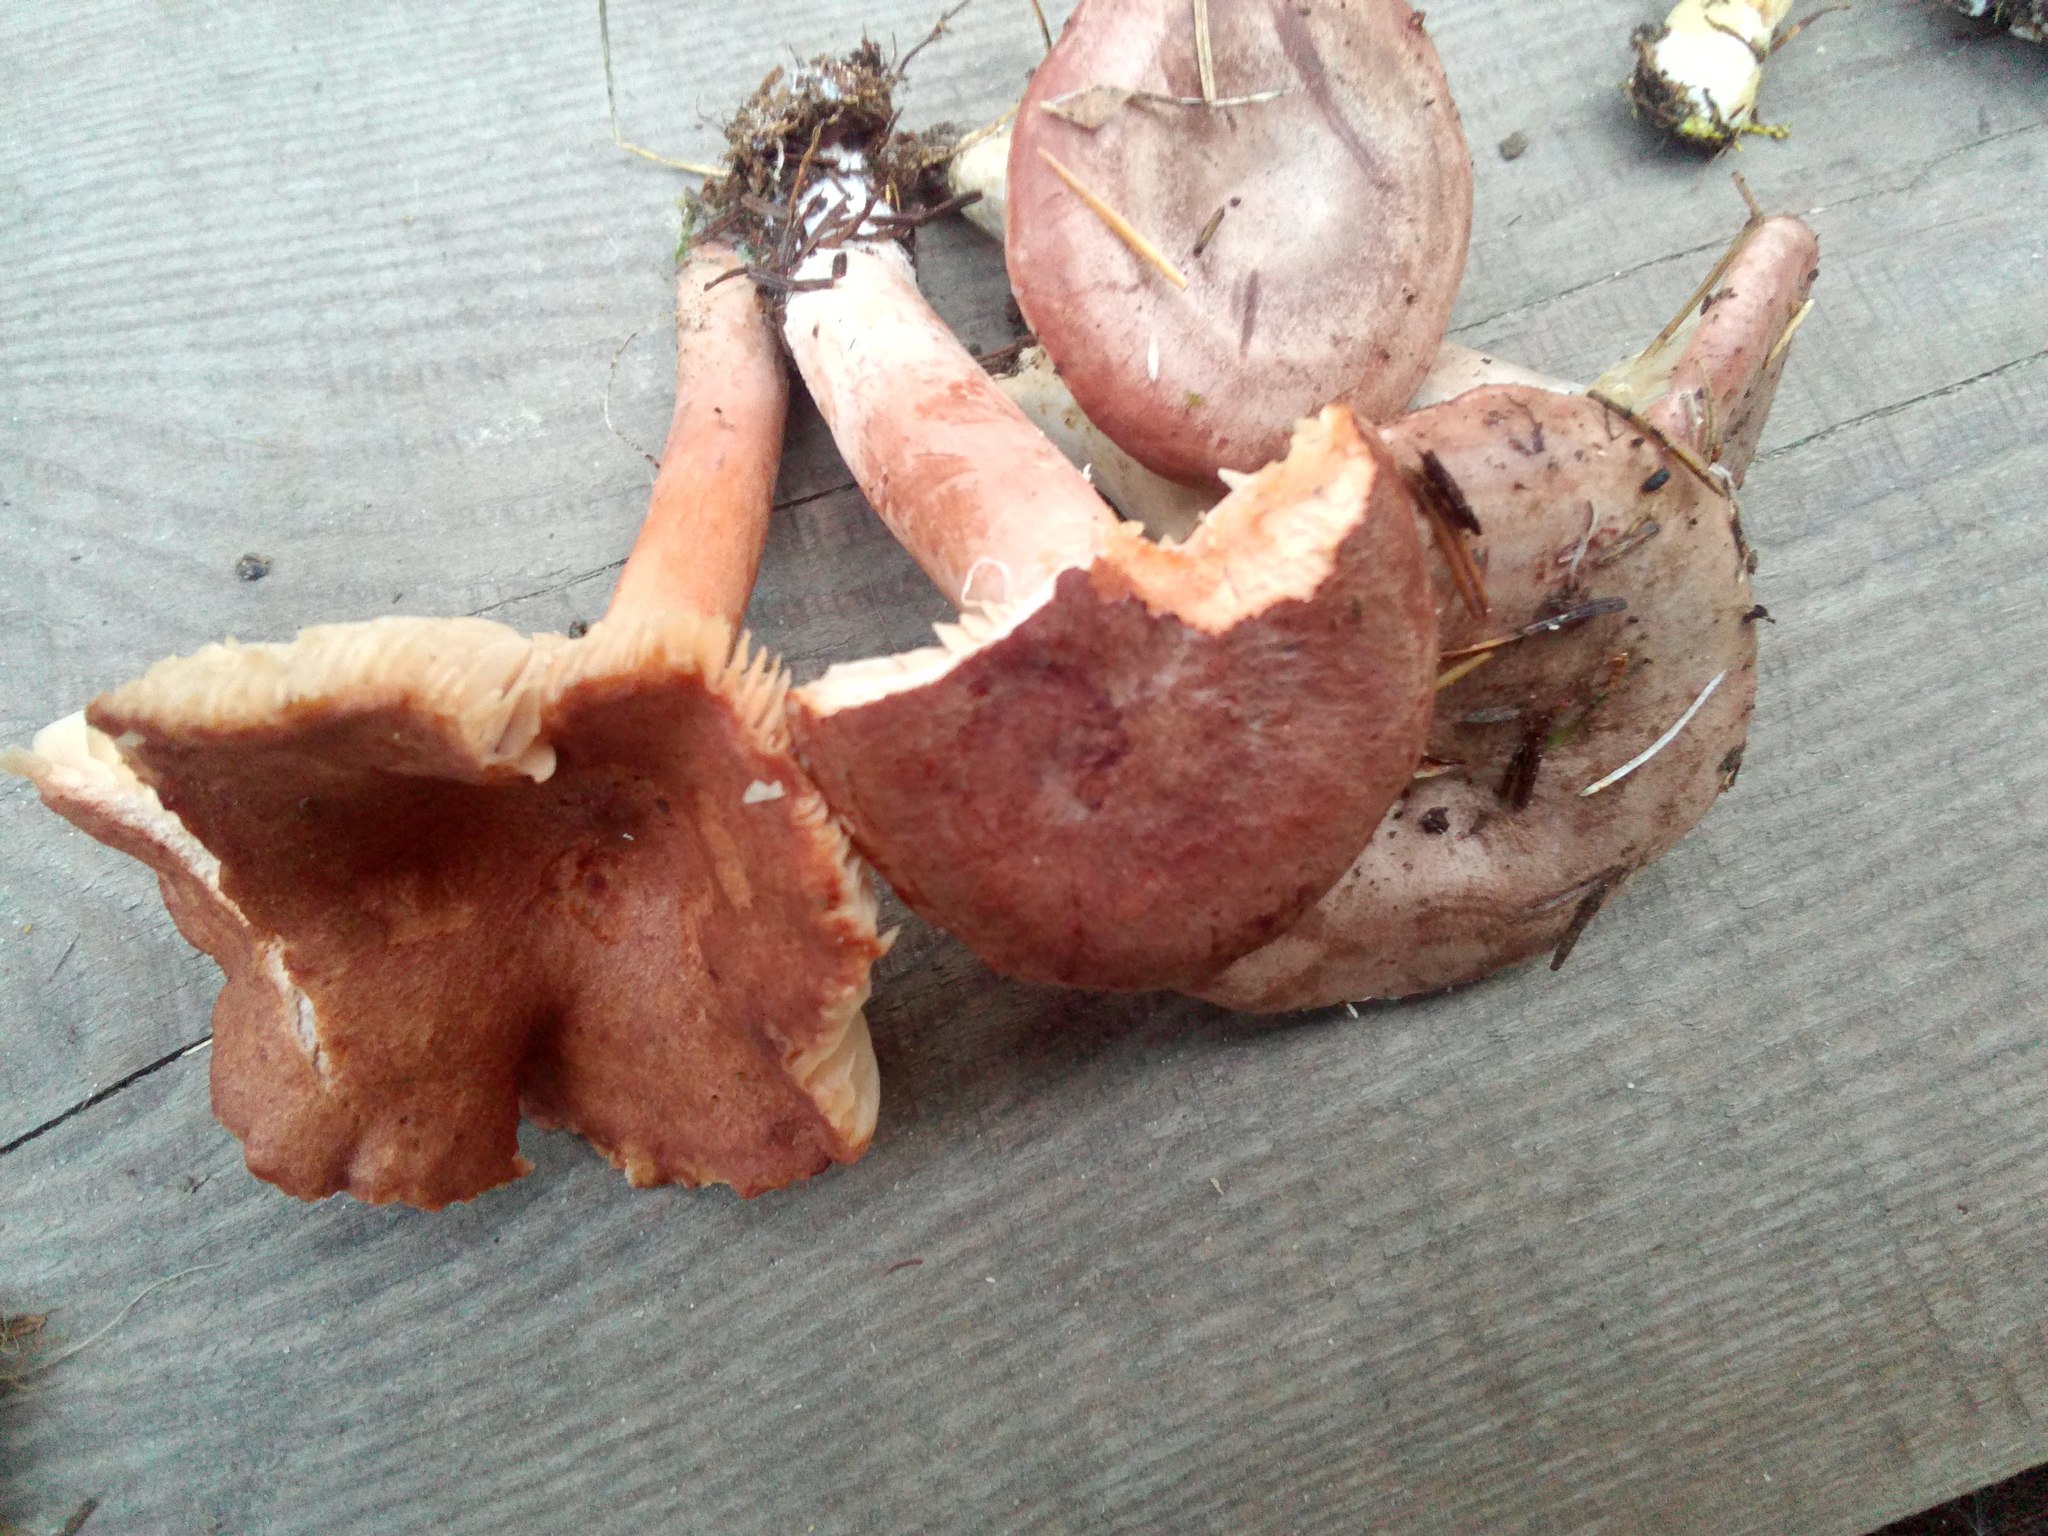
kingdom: Fungi
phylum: Basidiomycota
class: Agaricomycetes
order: Russulales
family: Russulaceae
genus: Lactarius
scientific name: Lactarius rufus
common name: Rufous milk-cap
